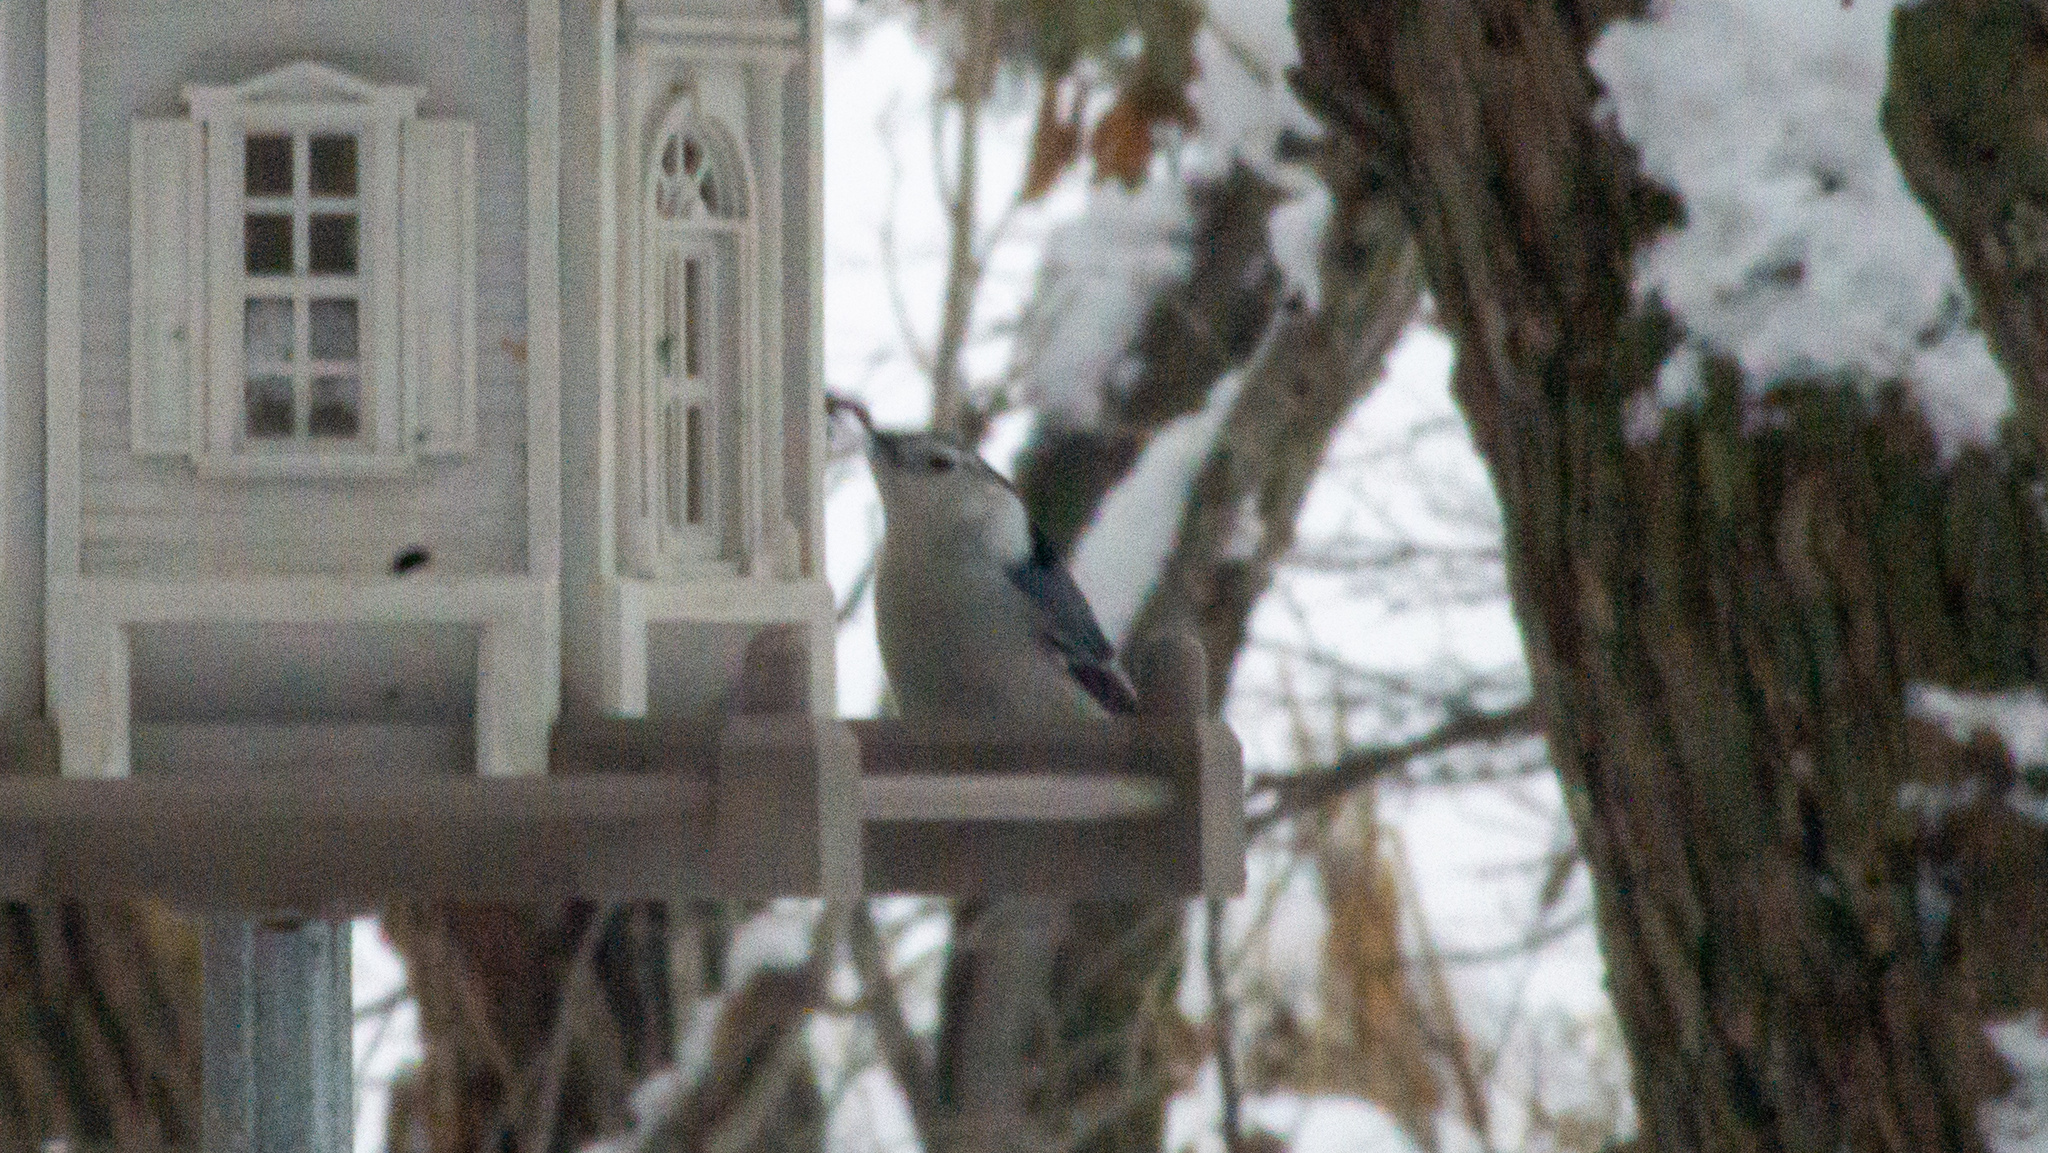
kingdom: Animalia
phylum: Chordata
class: Aves
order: Passeriformes
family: Sittidae
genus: Sitta
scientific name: Sitta carolinensis
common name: White-breasted nuthatch
